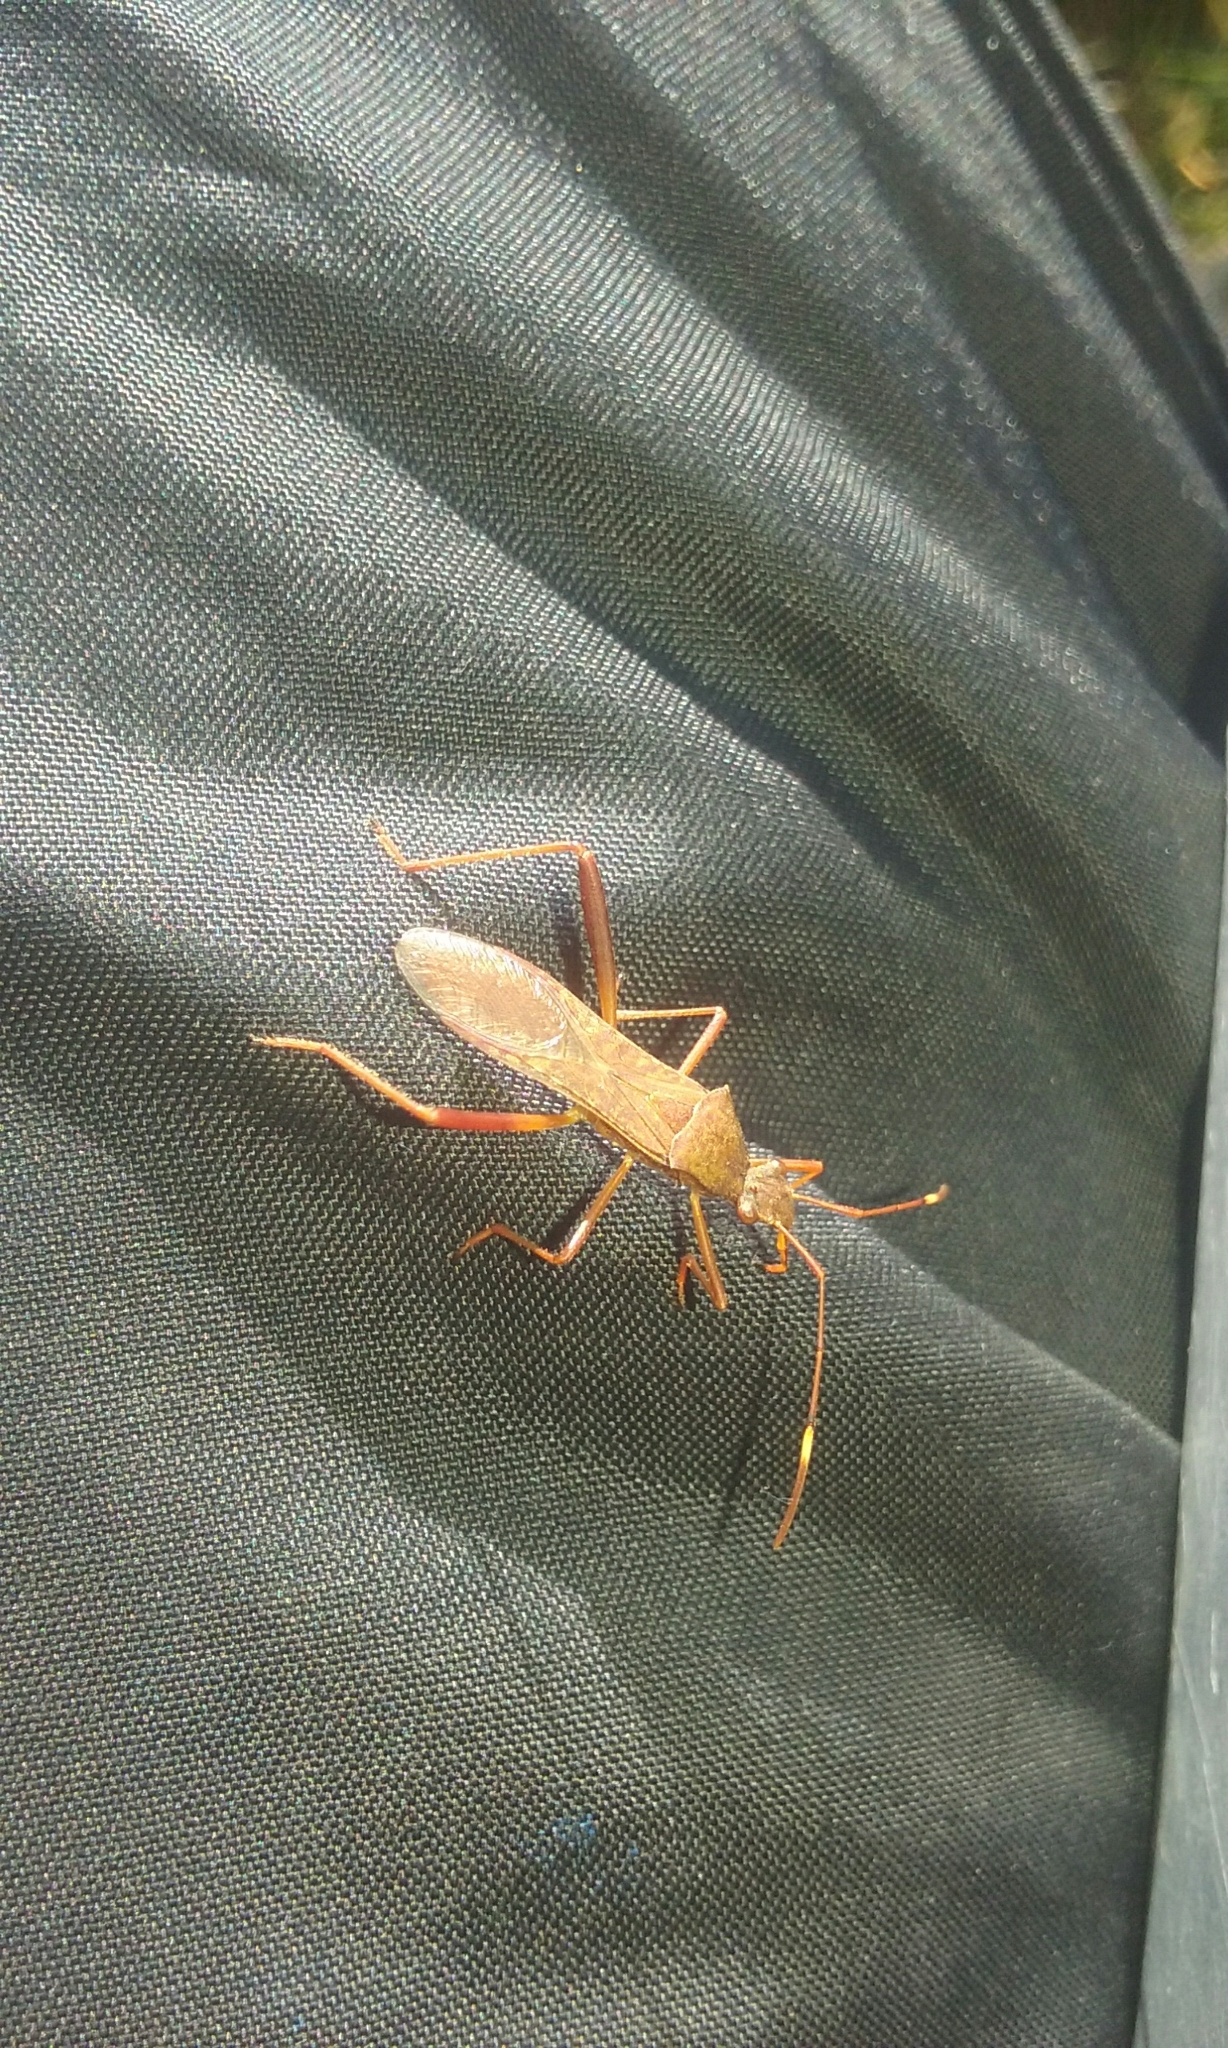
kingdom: Animalia
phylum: Arthropoda
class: Insecta
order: Hemiptera
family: Alydidae
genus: Megalotomus
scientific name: Megalotomus quinquespinosus
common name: Lupine bug
